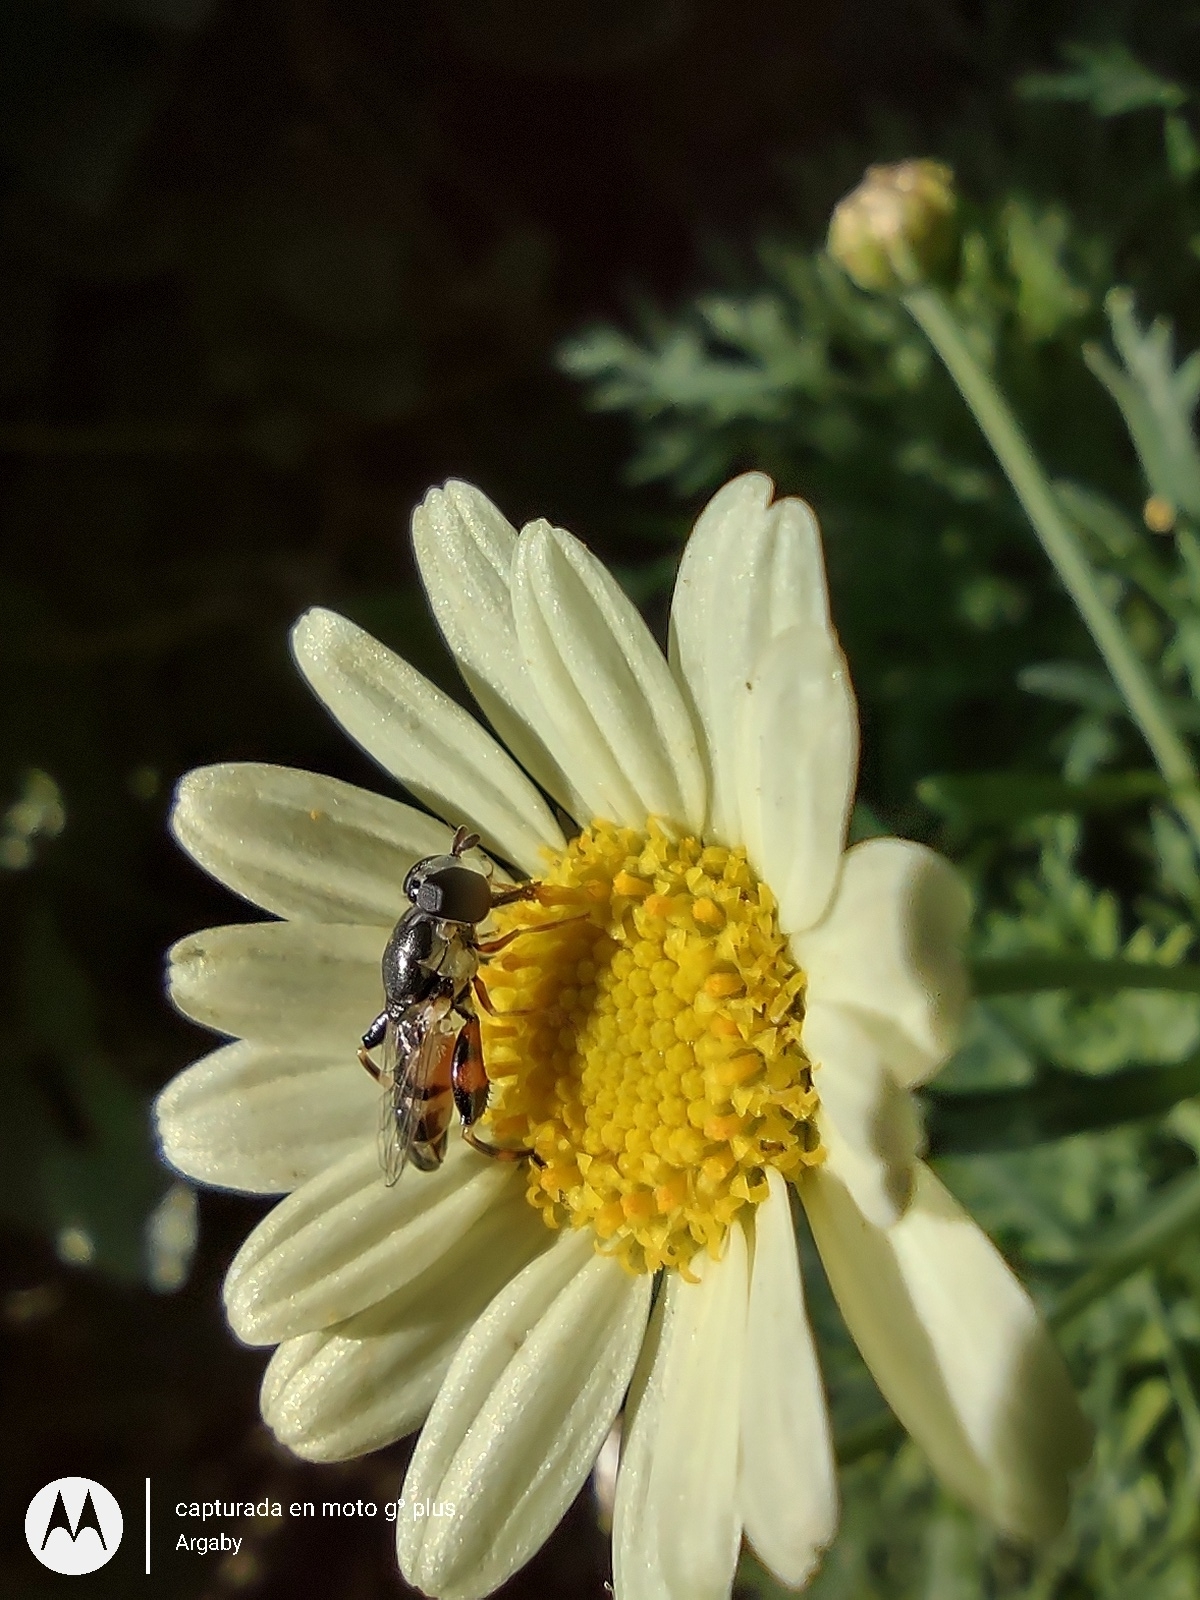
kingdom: Animalia
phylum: Arthropoda
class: Insecta
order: Diptera
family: Syrphidae
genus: Syritta
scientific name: Syritta flaviventris
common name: Syrphid fly
